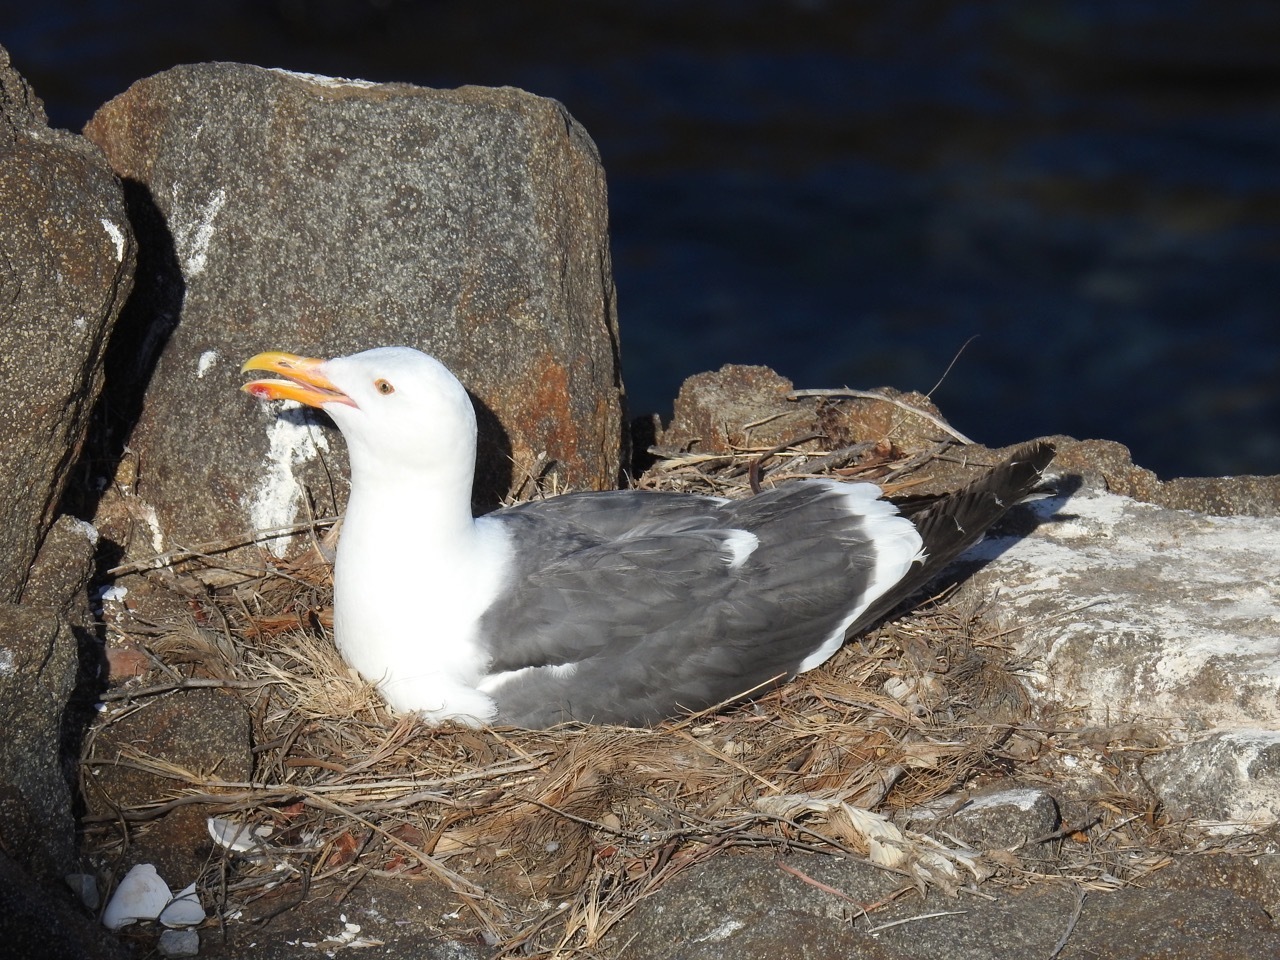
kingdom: Animalia
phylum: Chordata
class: Aves
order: Charadriiformes
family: Laridae
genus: Larus
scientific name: Larus occidentalis
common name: Western gull
